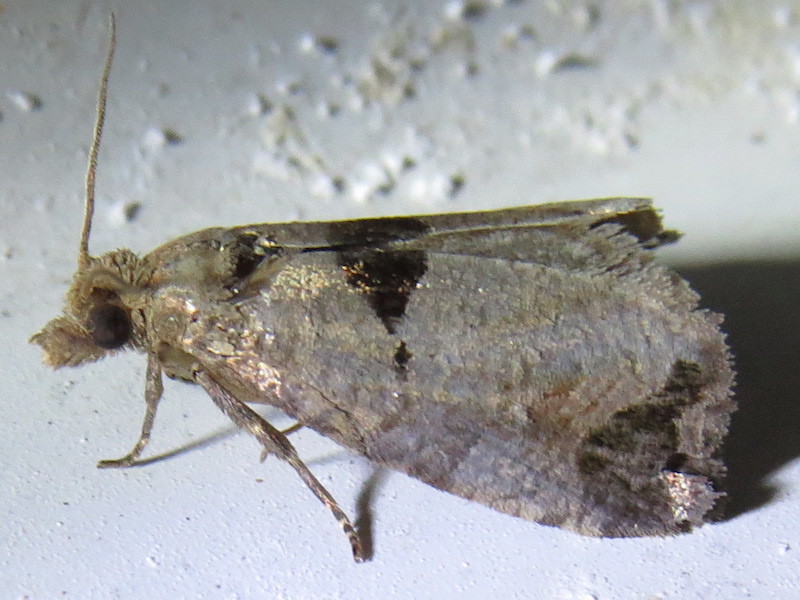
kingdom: Animalia
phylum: Arthropoda
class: Insecta
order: Lepidoptera
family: Tortricidae
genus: Epiblema
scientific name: Epiblema tandana
